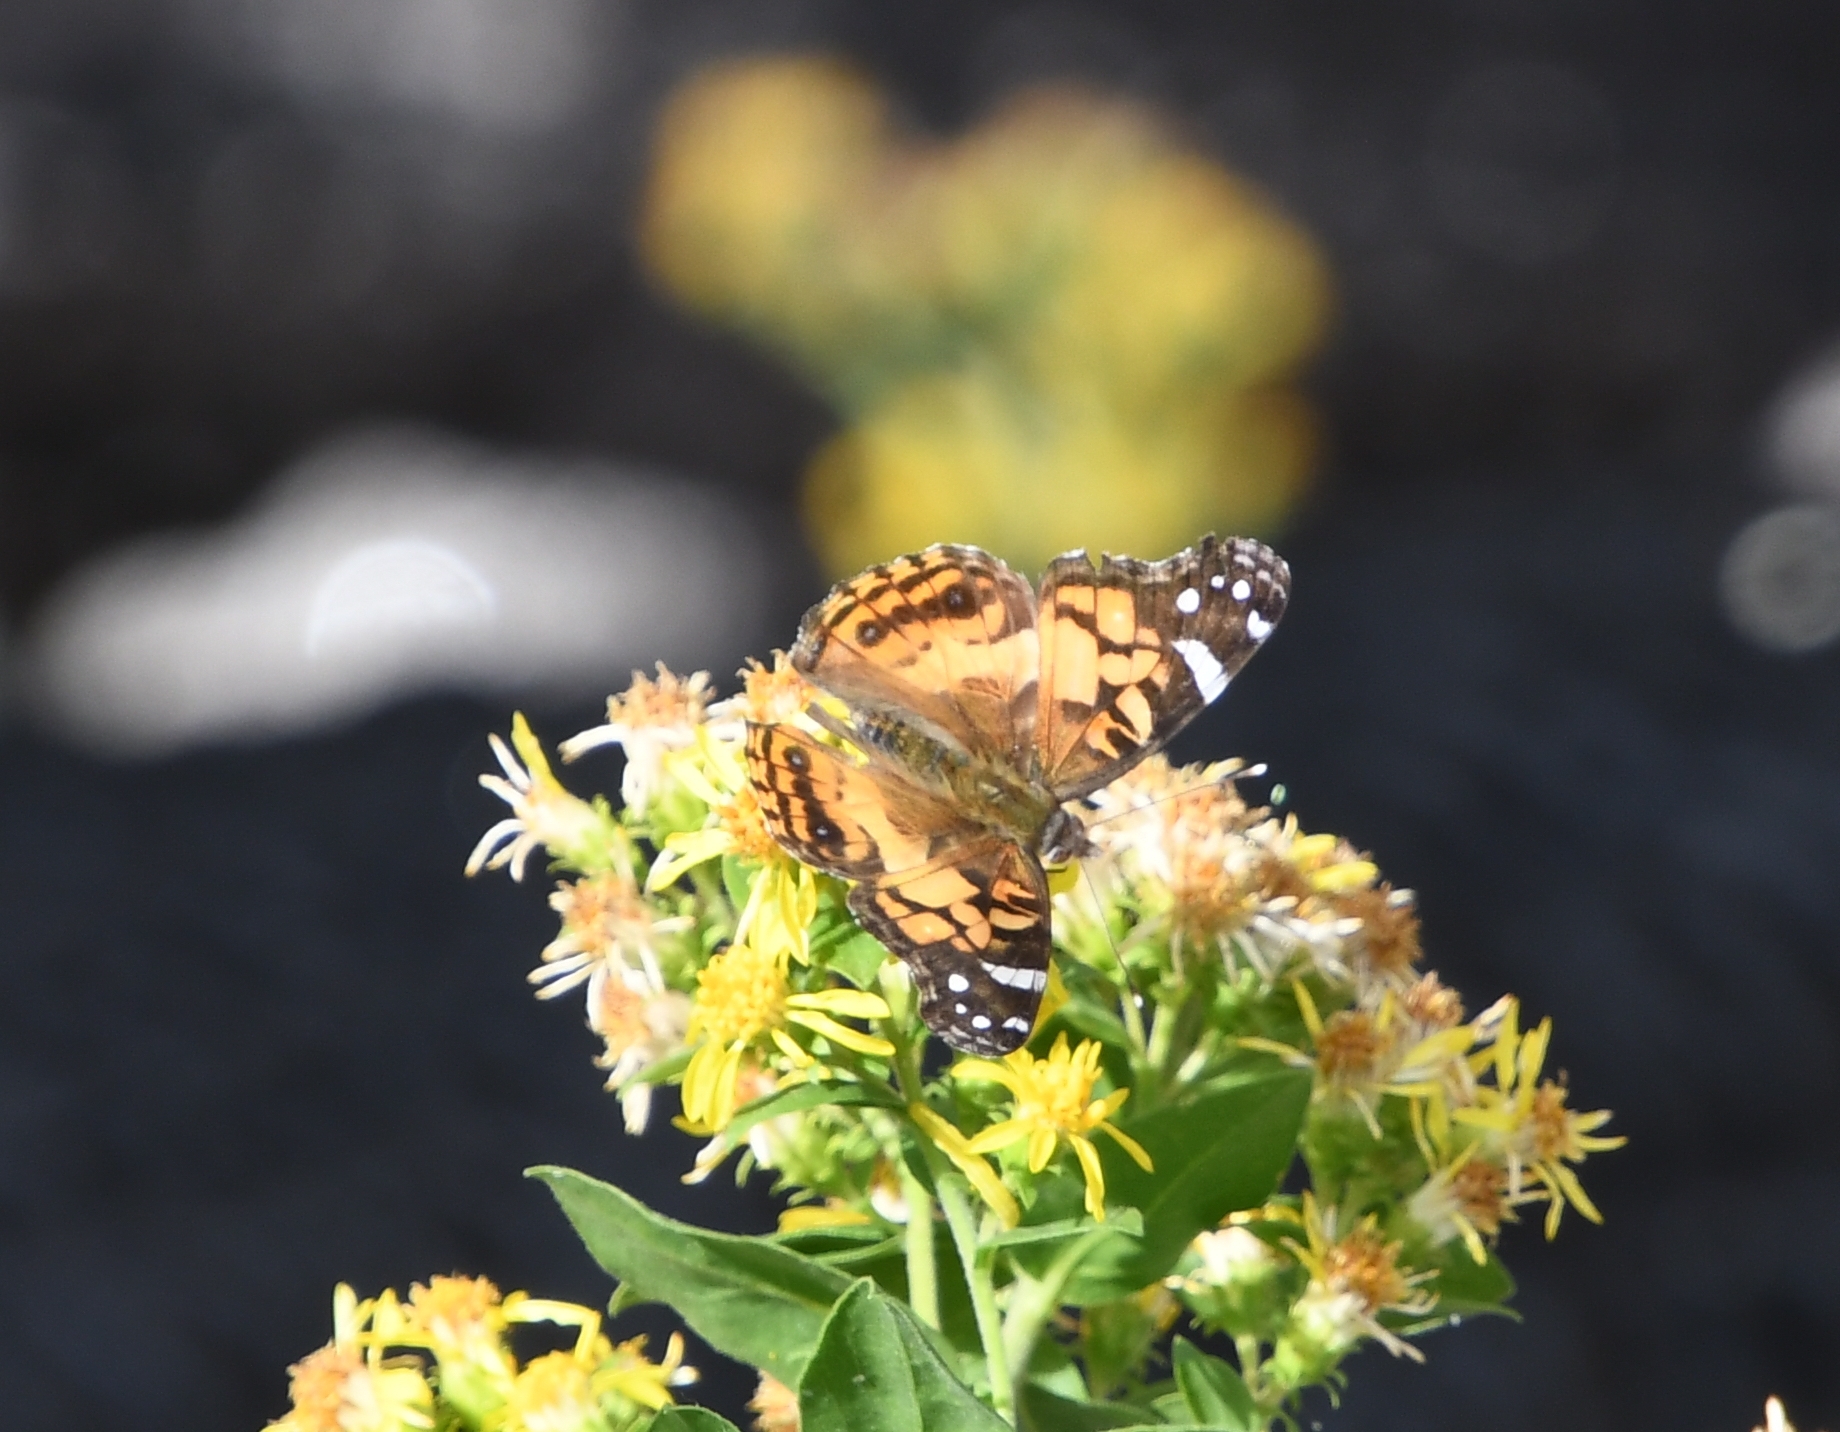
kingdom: Animalia
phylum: Arthropoda
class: Insecta
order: Lepidoptera
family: Nymphalidae
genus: Vanessa
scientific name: Vanessa virginiensis
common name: American lady
